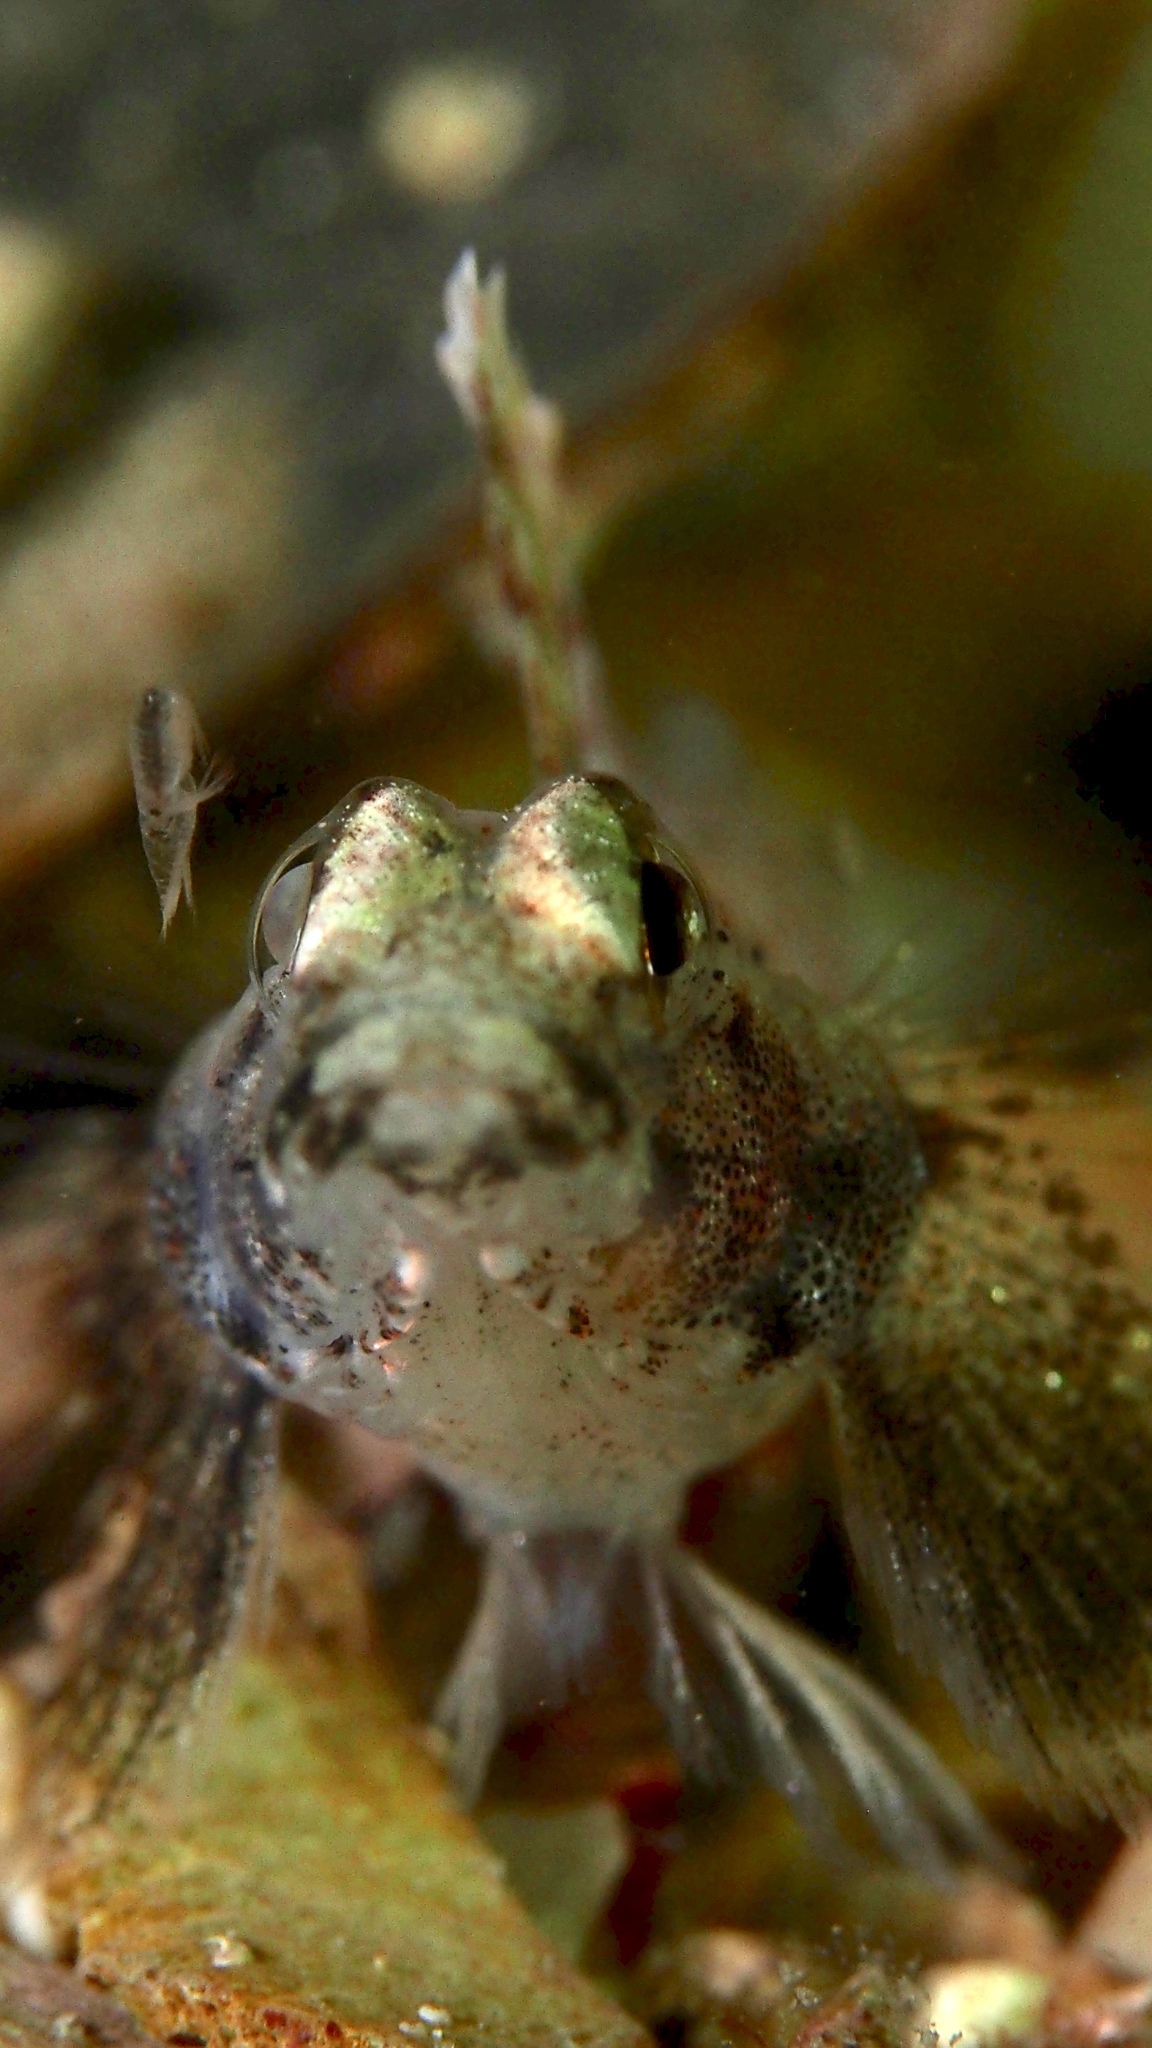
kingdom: Animalia
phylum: Chordata
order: Perciformes
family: Gobiidae
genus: Nesogobius
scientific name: Nesogobius pulchellus
